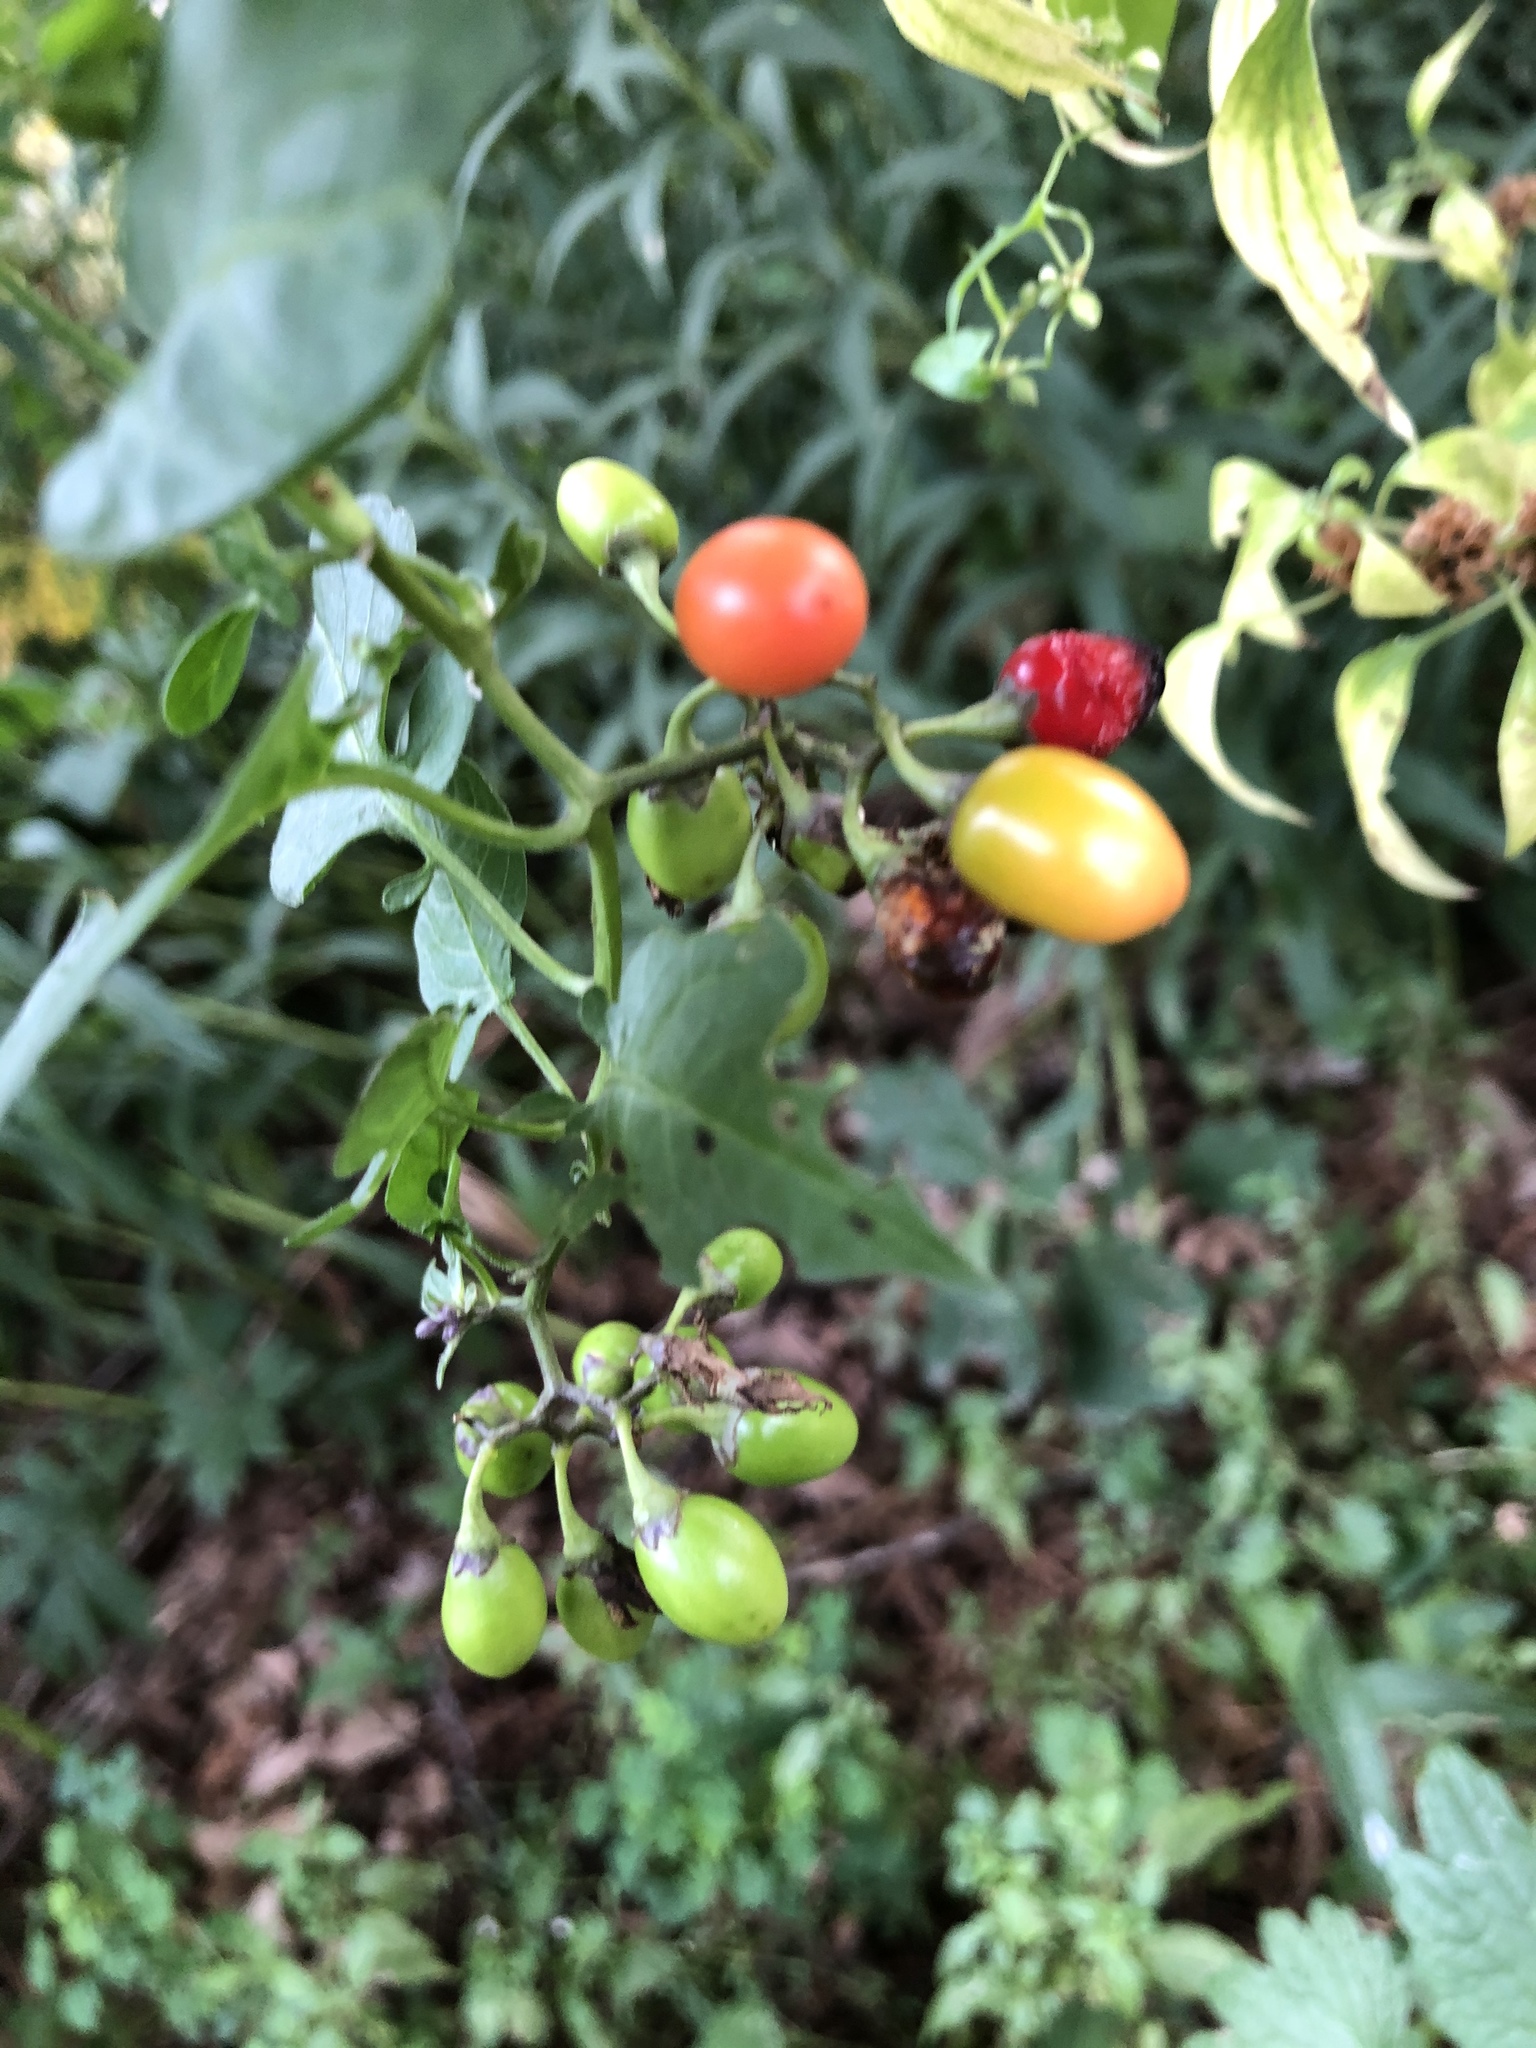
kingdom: Plantae
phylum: Tracheophyta
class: Magnoliopsida
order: Solanales
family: Solanaceae
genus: Solanum
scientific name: Solanum dulcamara
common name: Climbing nightshade
